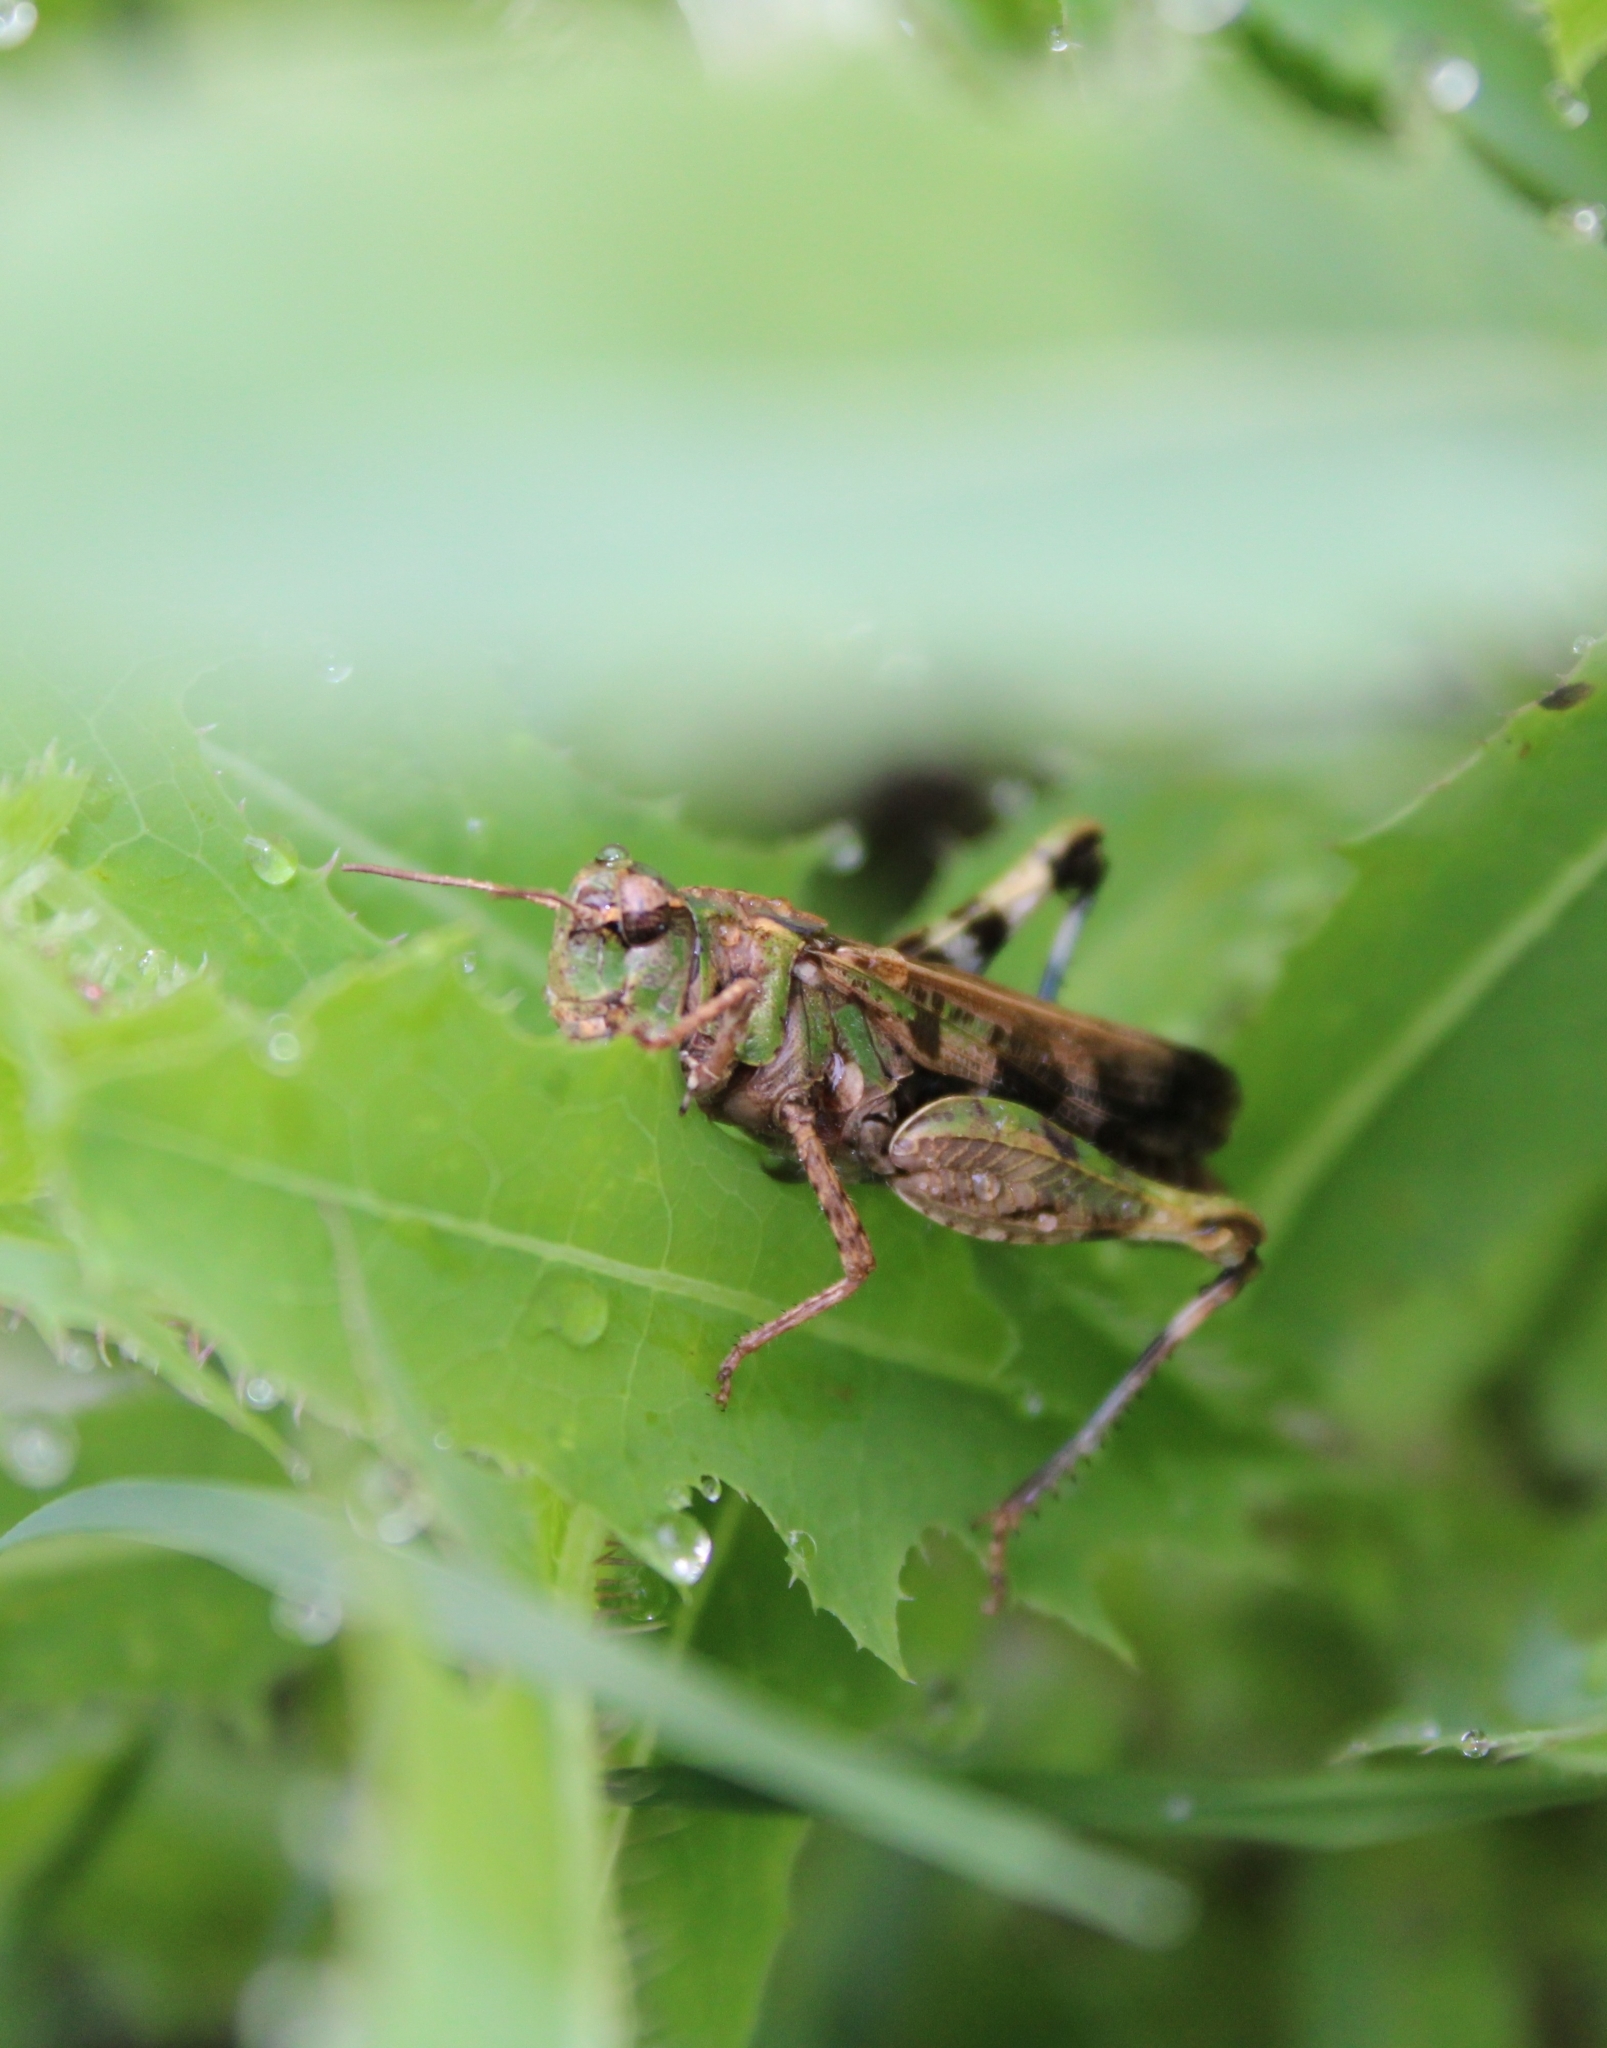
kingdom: Animalia
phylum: Arthropoda
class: Insecta
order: Orthoptera
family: Acrididae
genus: Encoptolophus
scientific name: Encoptolophus costalis
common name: Dusky grasshopper
